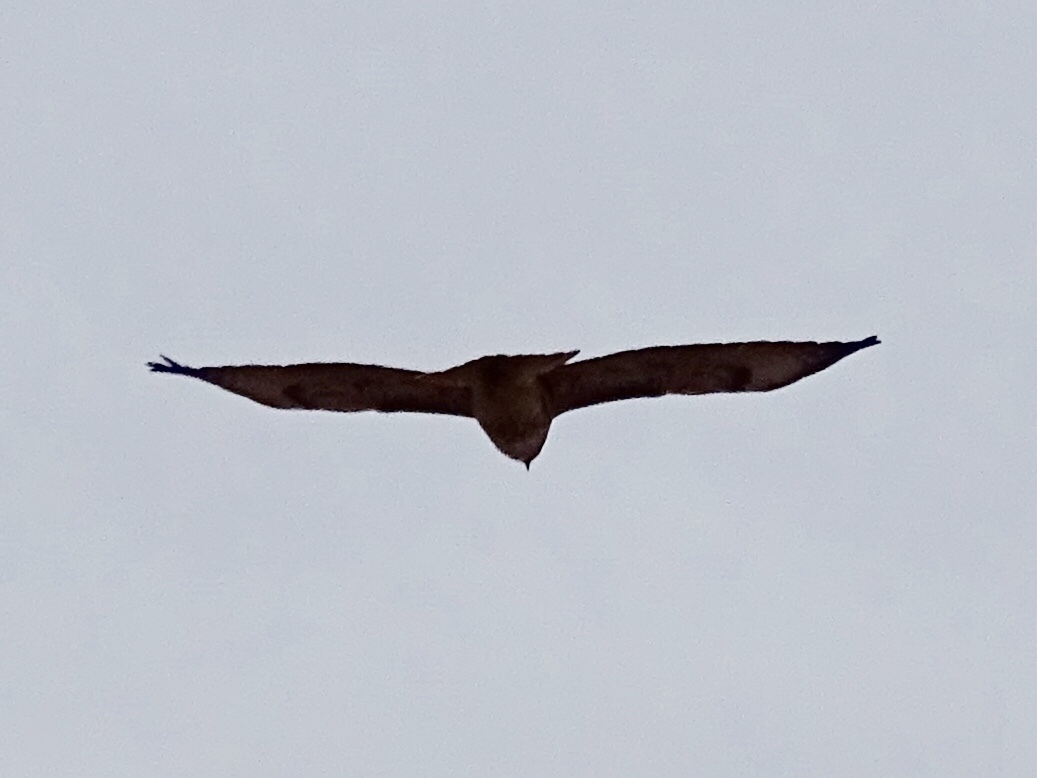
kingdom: Animalia
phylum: Chordata
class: Aves
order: Accipitriformes
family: Accipitridae
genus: Buteo
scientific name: Buteo jamaicensis
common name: Red-tailed hawk
